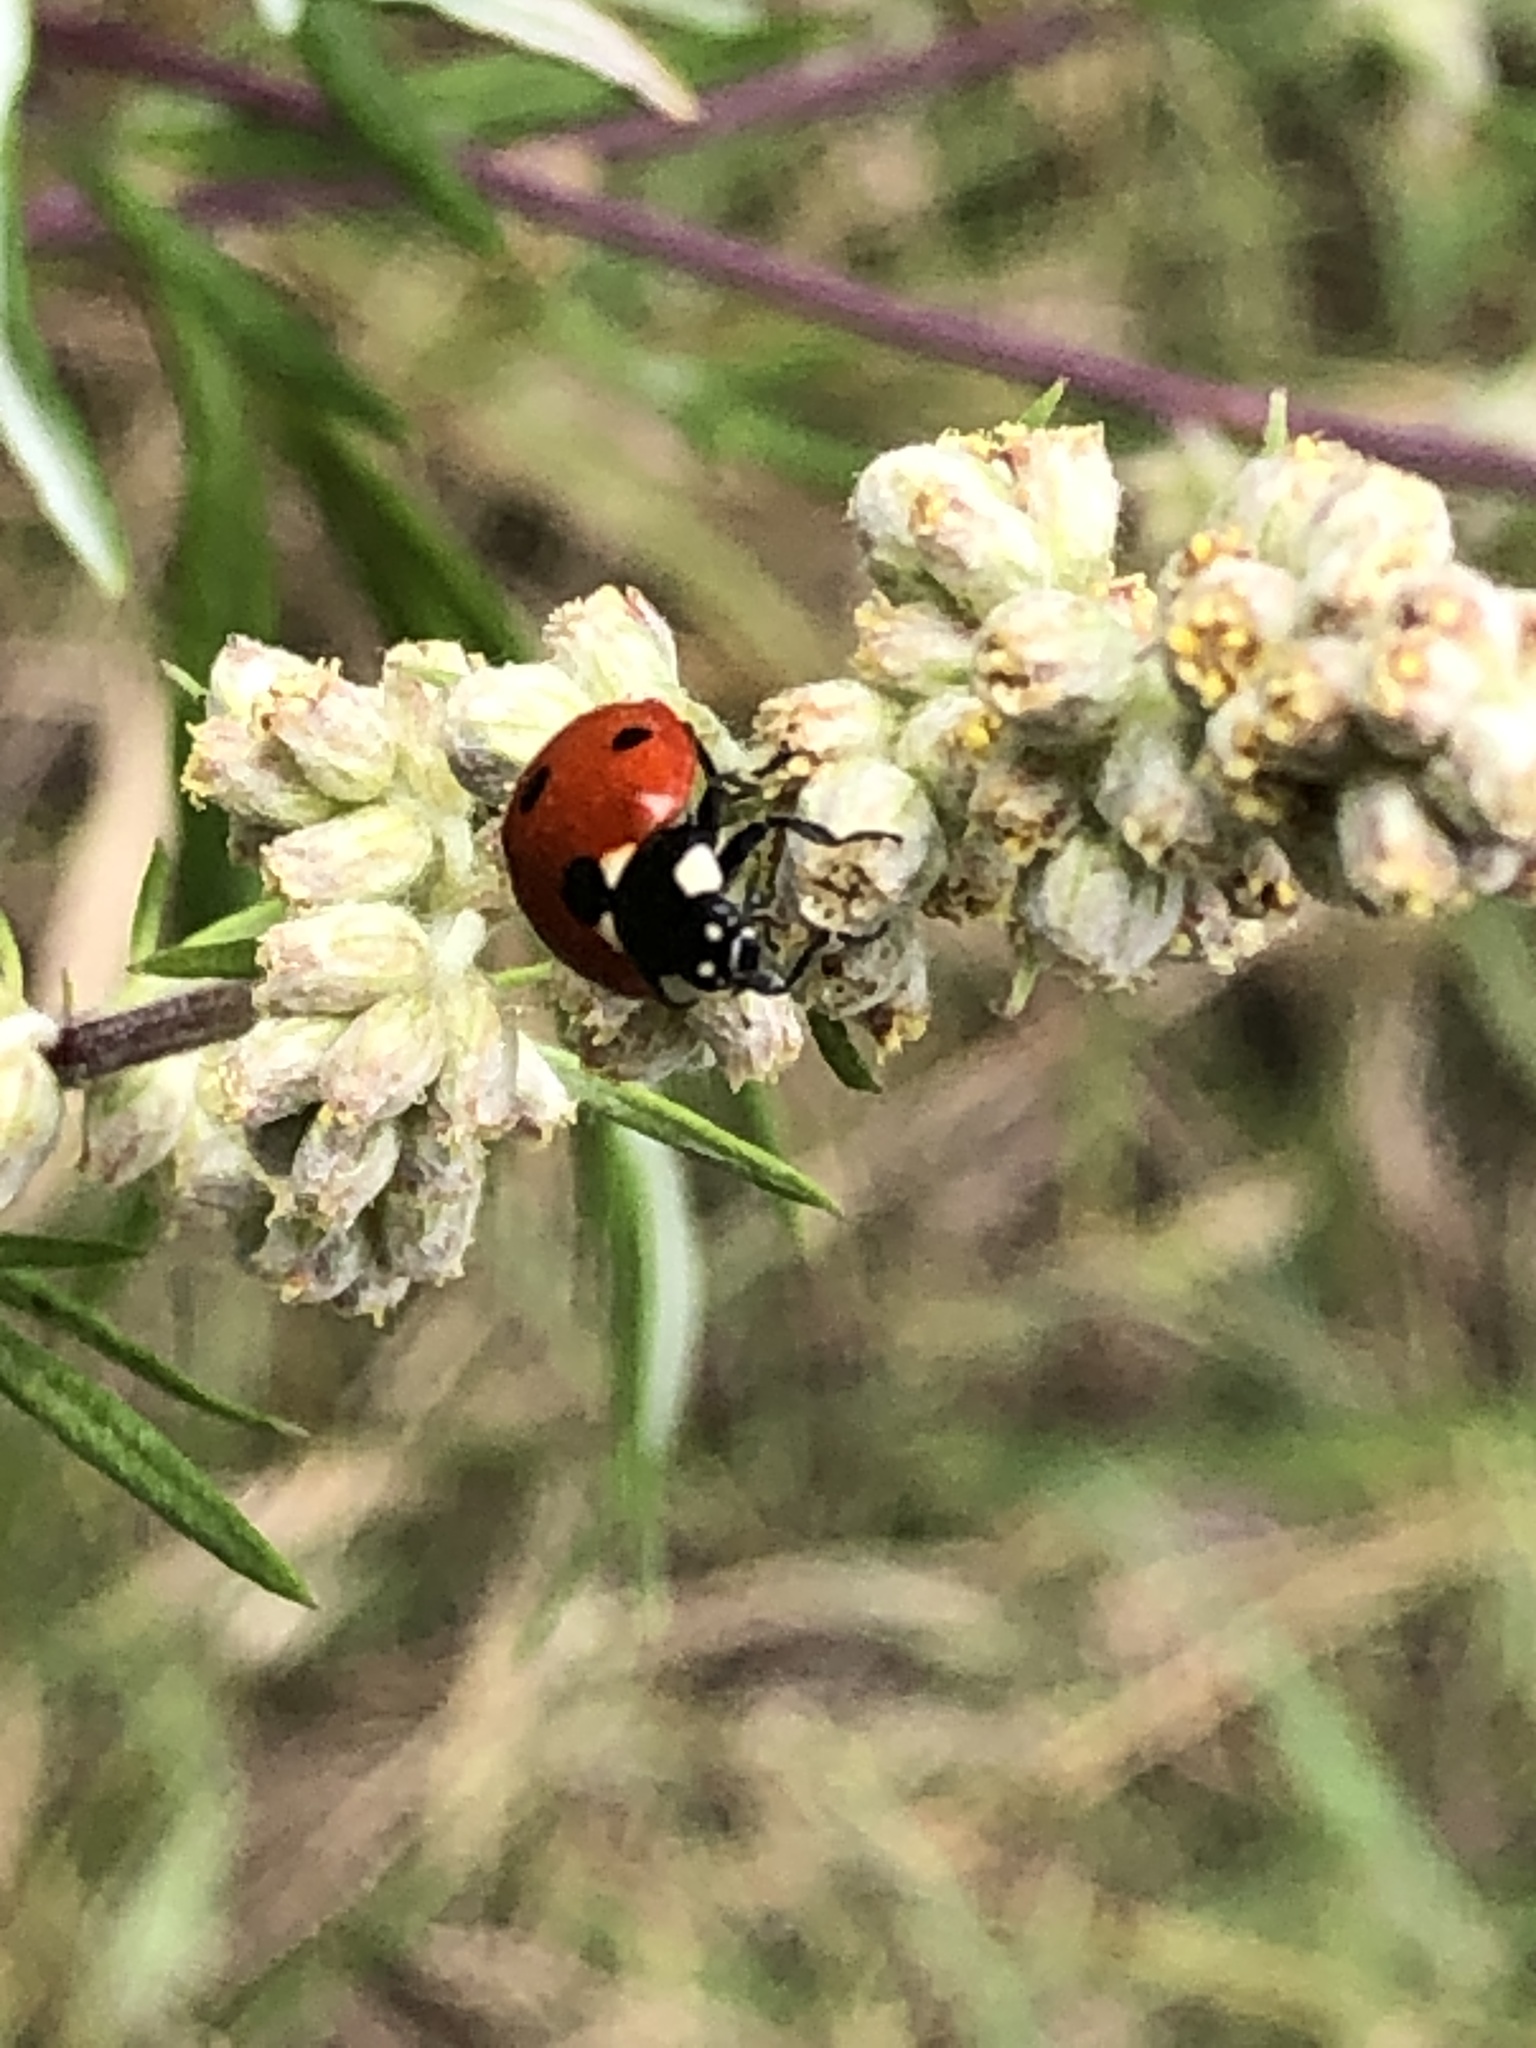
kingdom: Animalia
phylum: Arthropoda
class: Insecta
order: Coleoptera
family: Coccinellidae
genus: Coccinella
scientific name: Coccinella septempunctata
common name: Sevenspotted lady beetle
